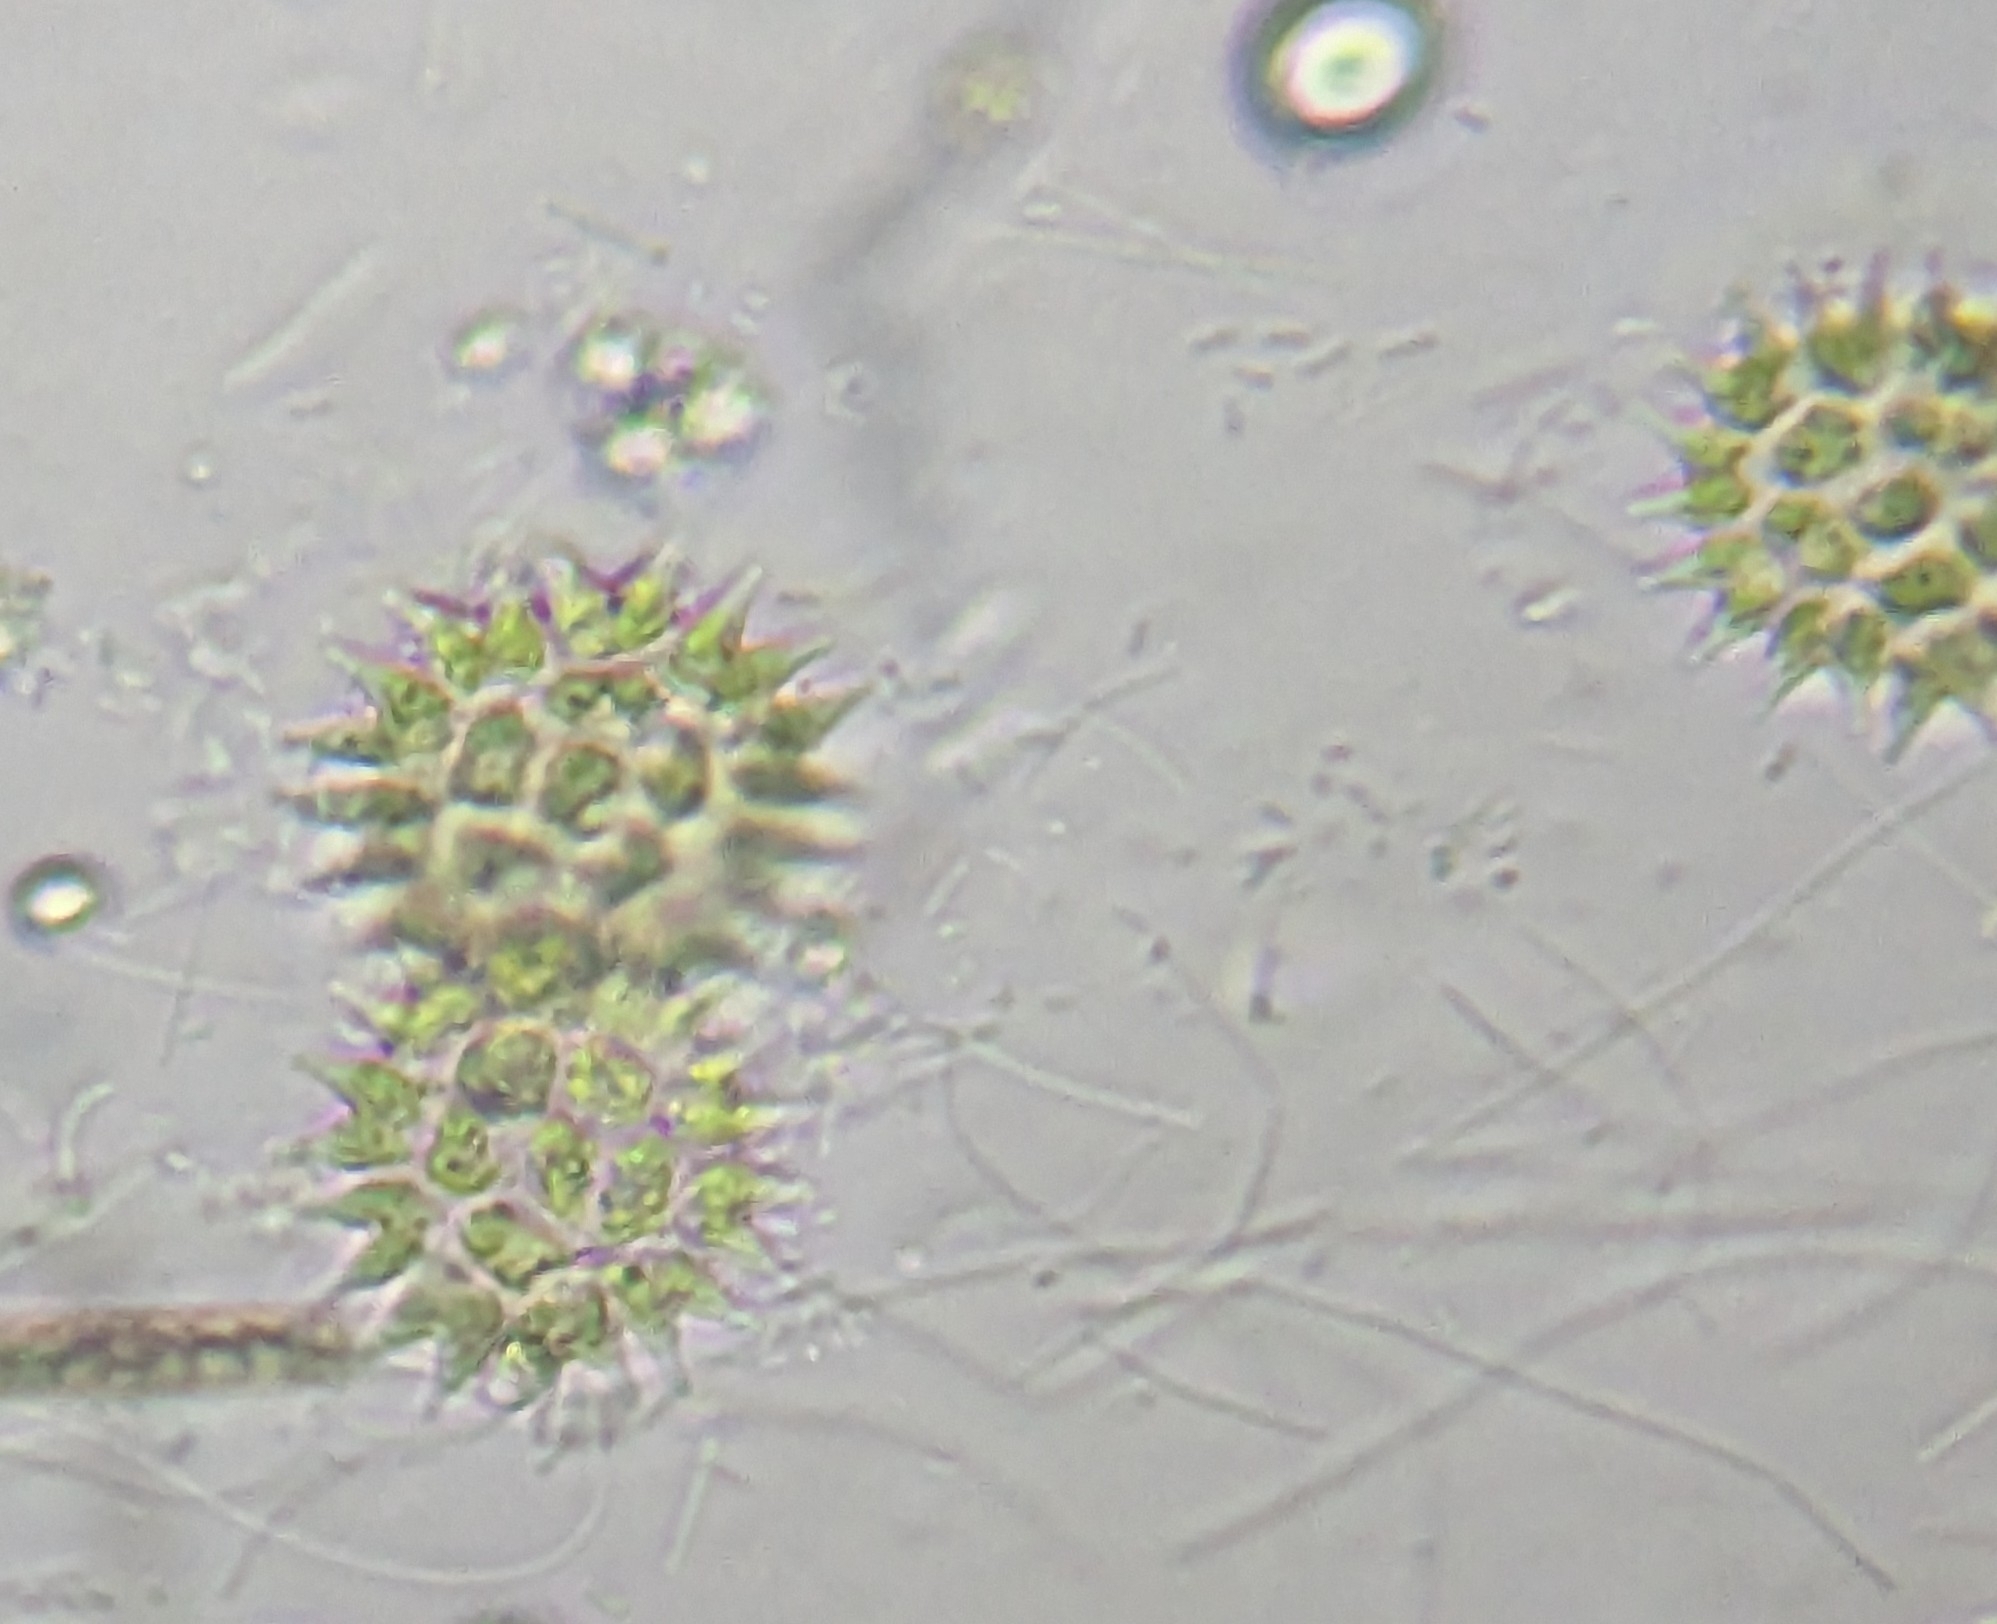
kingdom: Plantae
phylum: Chlorophyta
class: Chlorophyceae
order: Sphaeropleales
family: Hydrodictyaceae
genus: Pseudopediastrum
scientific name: Pseudopediastrum boryanum
